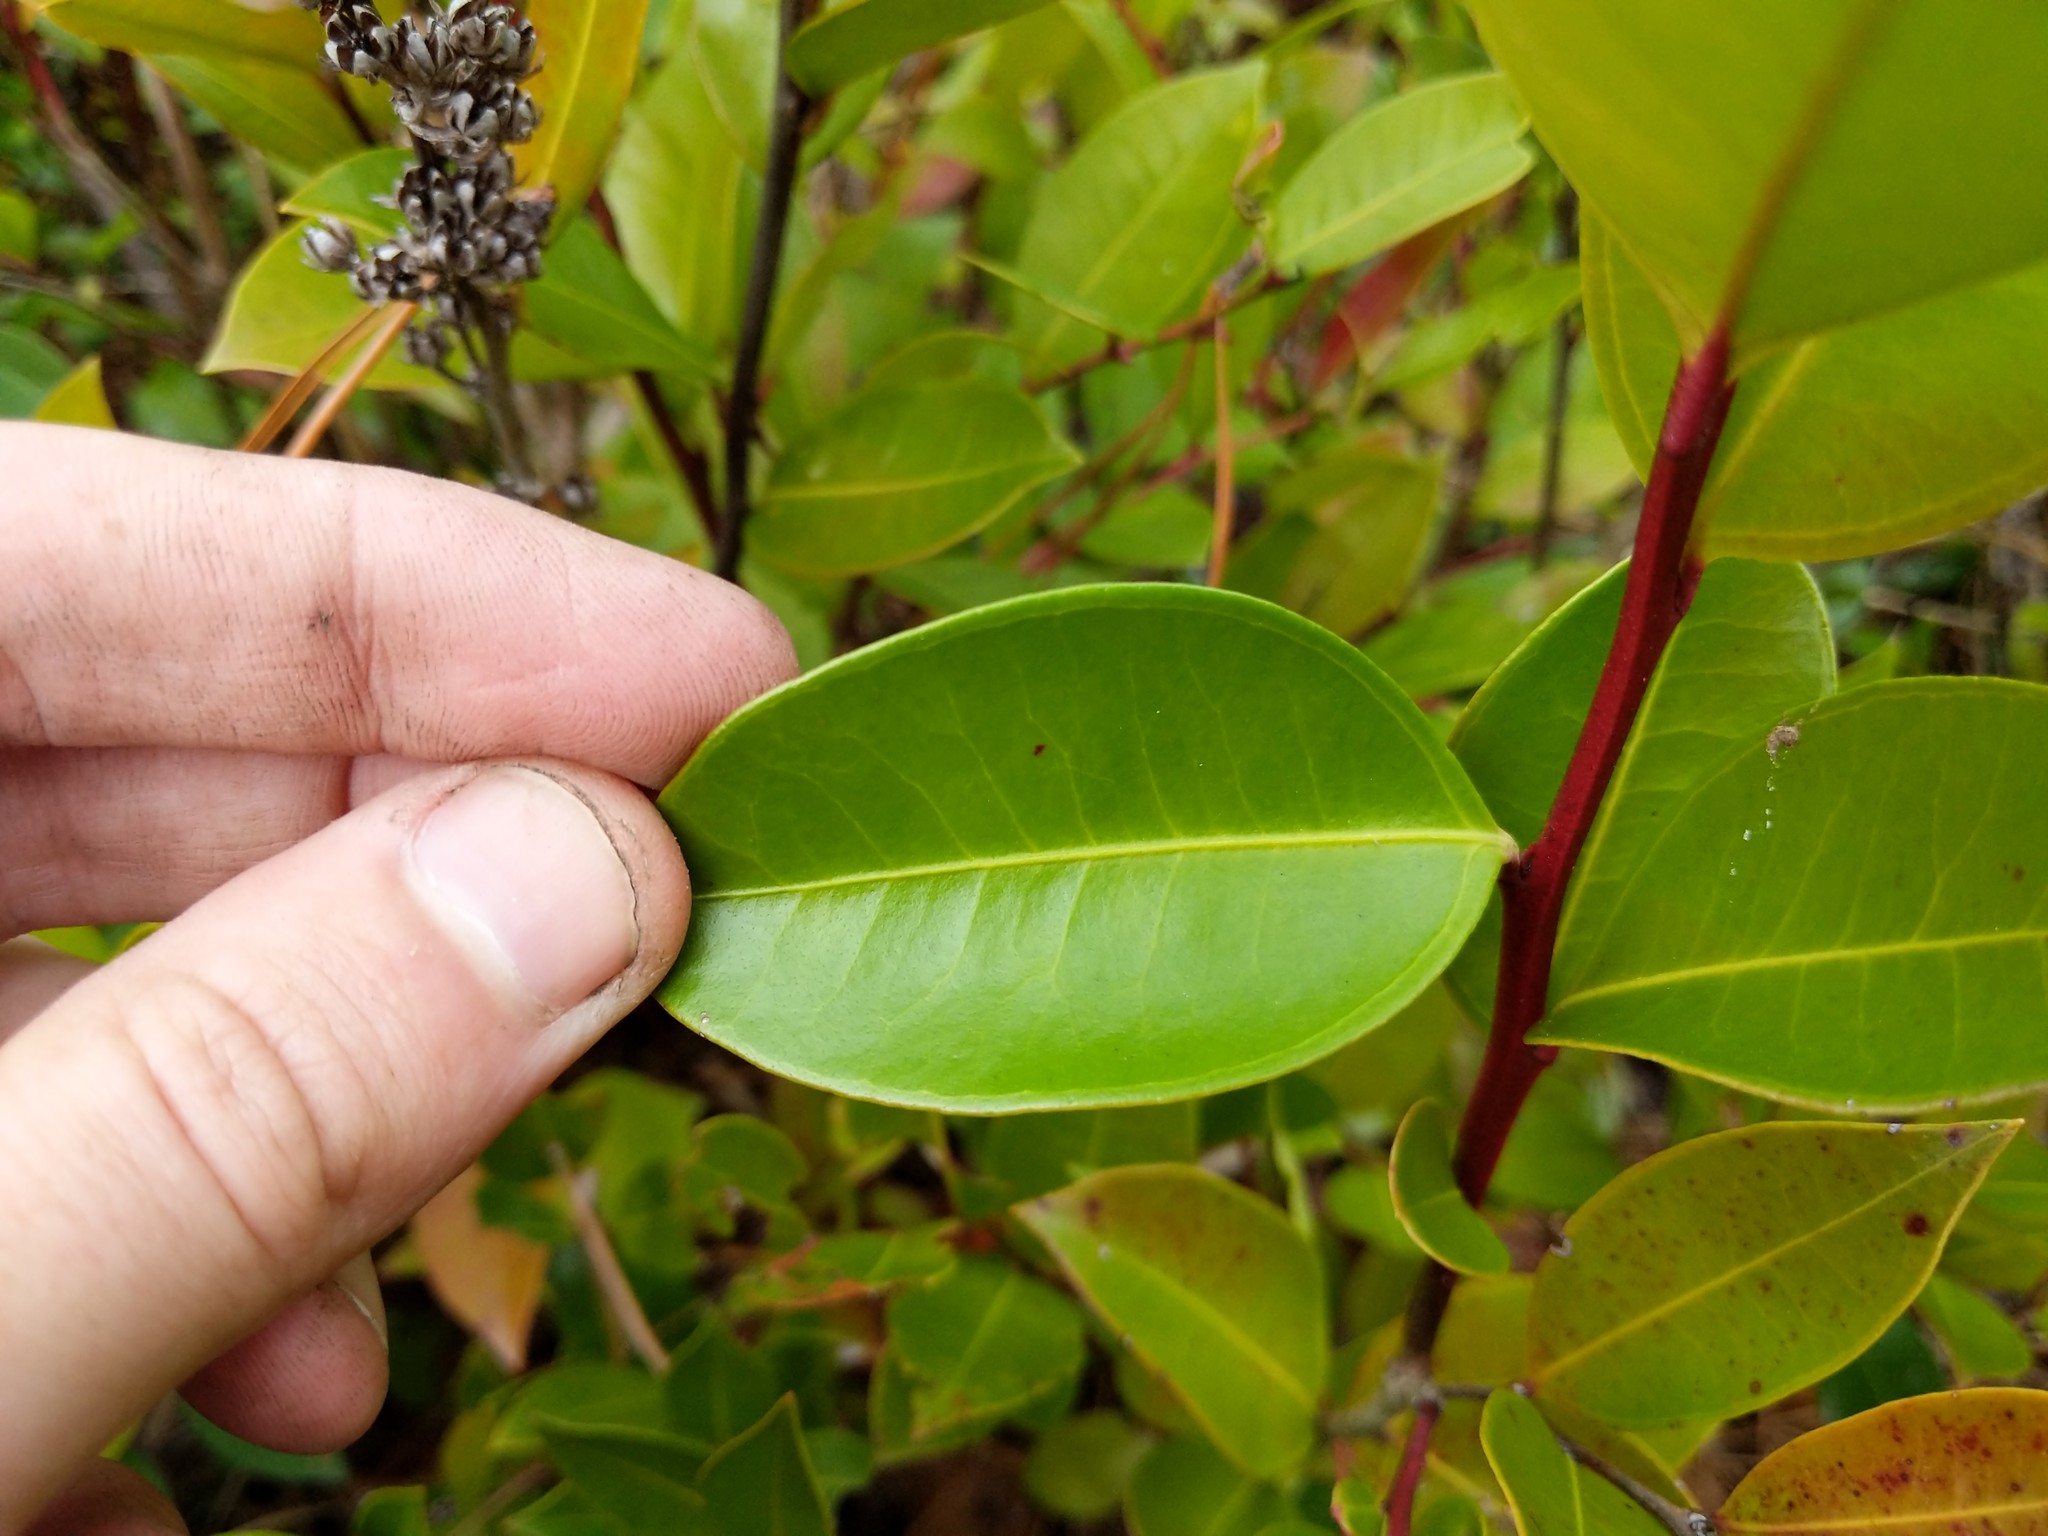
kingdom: Plantae
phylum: Tracheophyta
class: Magnoliopsida
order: Ericales
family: Ericaceae
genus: Lyonia
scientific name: Lyonia lucida
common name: Fetterbush
